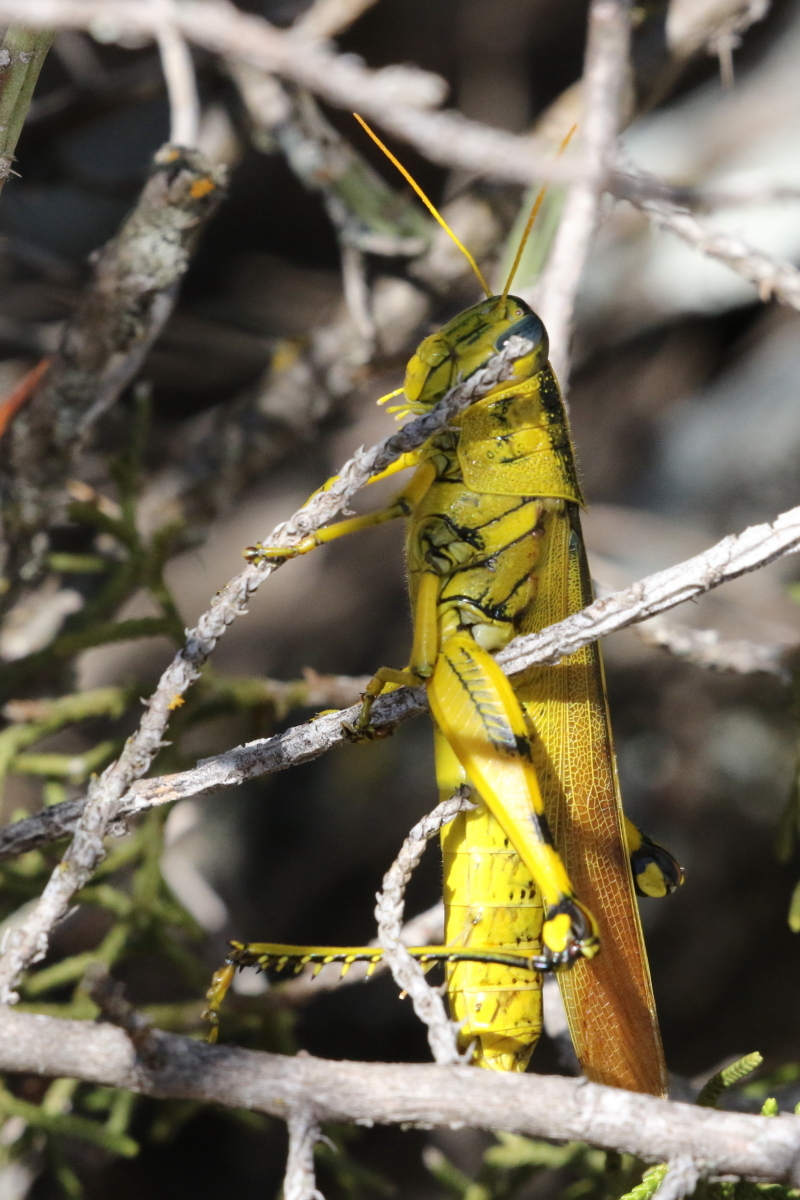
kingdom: Animalia
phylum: Arthropoda
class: Insecta
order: Orthoptera
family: Acrididae
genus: Schistocerca
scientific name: Schistocerca lineata
